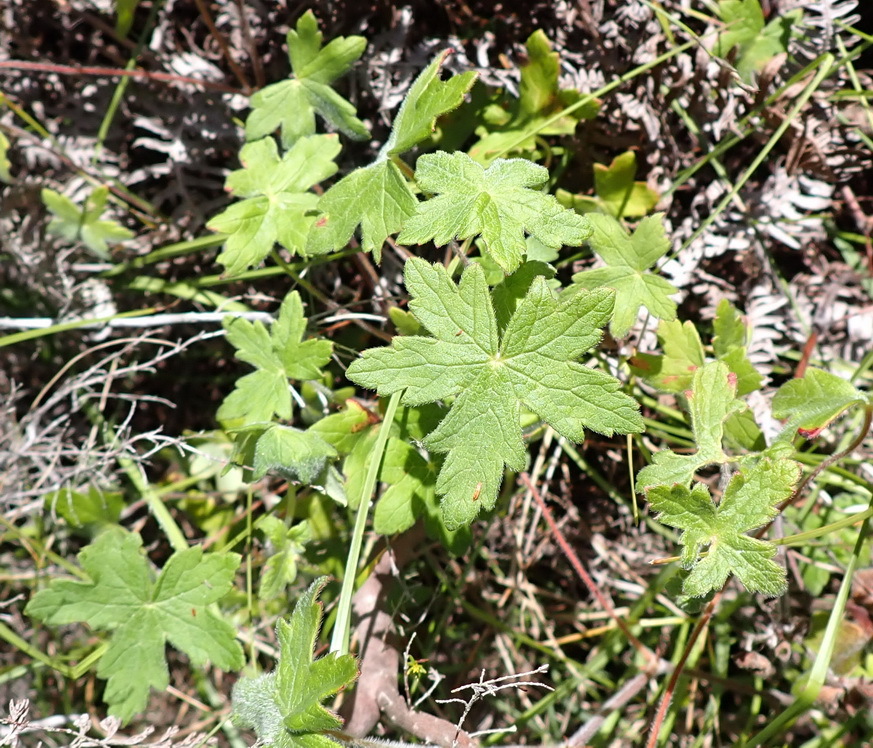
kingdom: Plantae
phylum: Tracheophyta
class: Magnoliopsida
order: Geraniales
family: Geraniaceae
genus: Geranium
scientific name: Geranium ornithopodon
